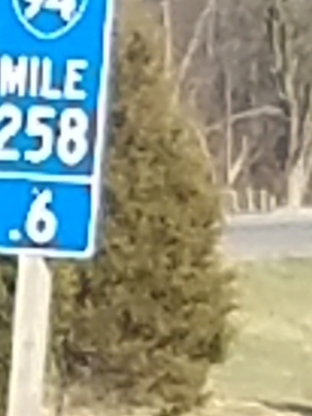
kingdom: Plantae
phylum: Tracheophyta
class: Pinopsida
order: Pinales
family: Cupressaceae
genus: Juniperus
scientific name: Juniperus virginiana
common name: Red juniper
